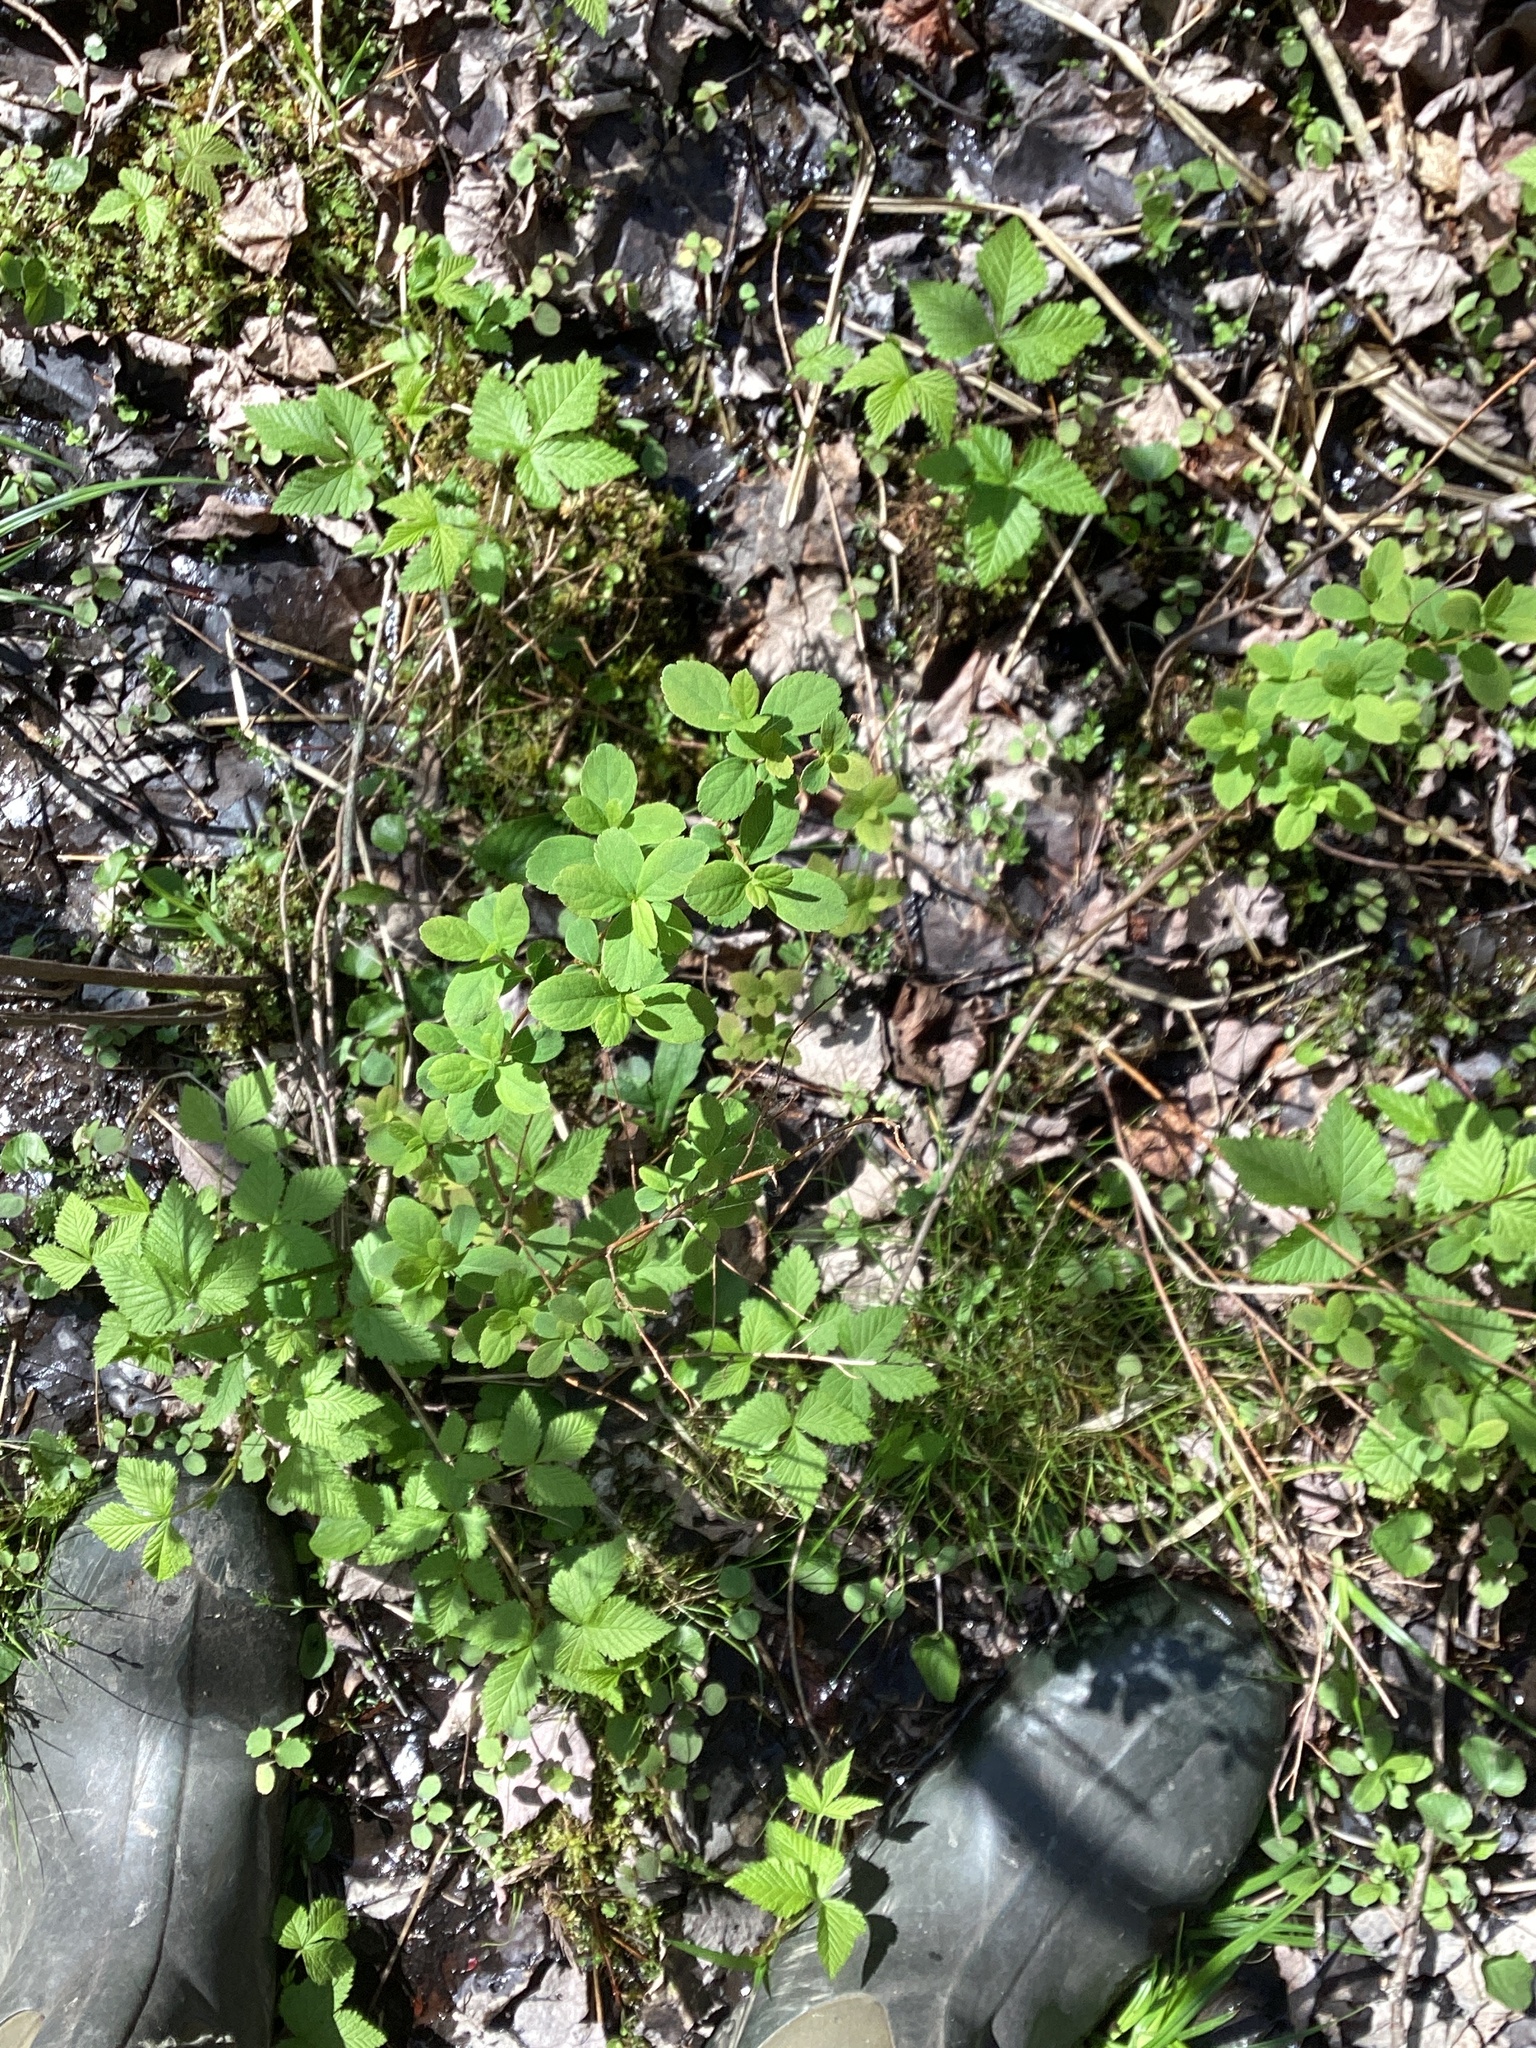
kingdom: Plantae
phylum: Tracheophyta
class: Magnoliopsida
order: Rosales
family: Rosaceae
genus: Spiraea
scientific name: Spiraea alba
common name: Pale bridewort
